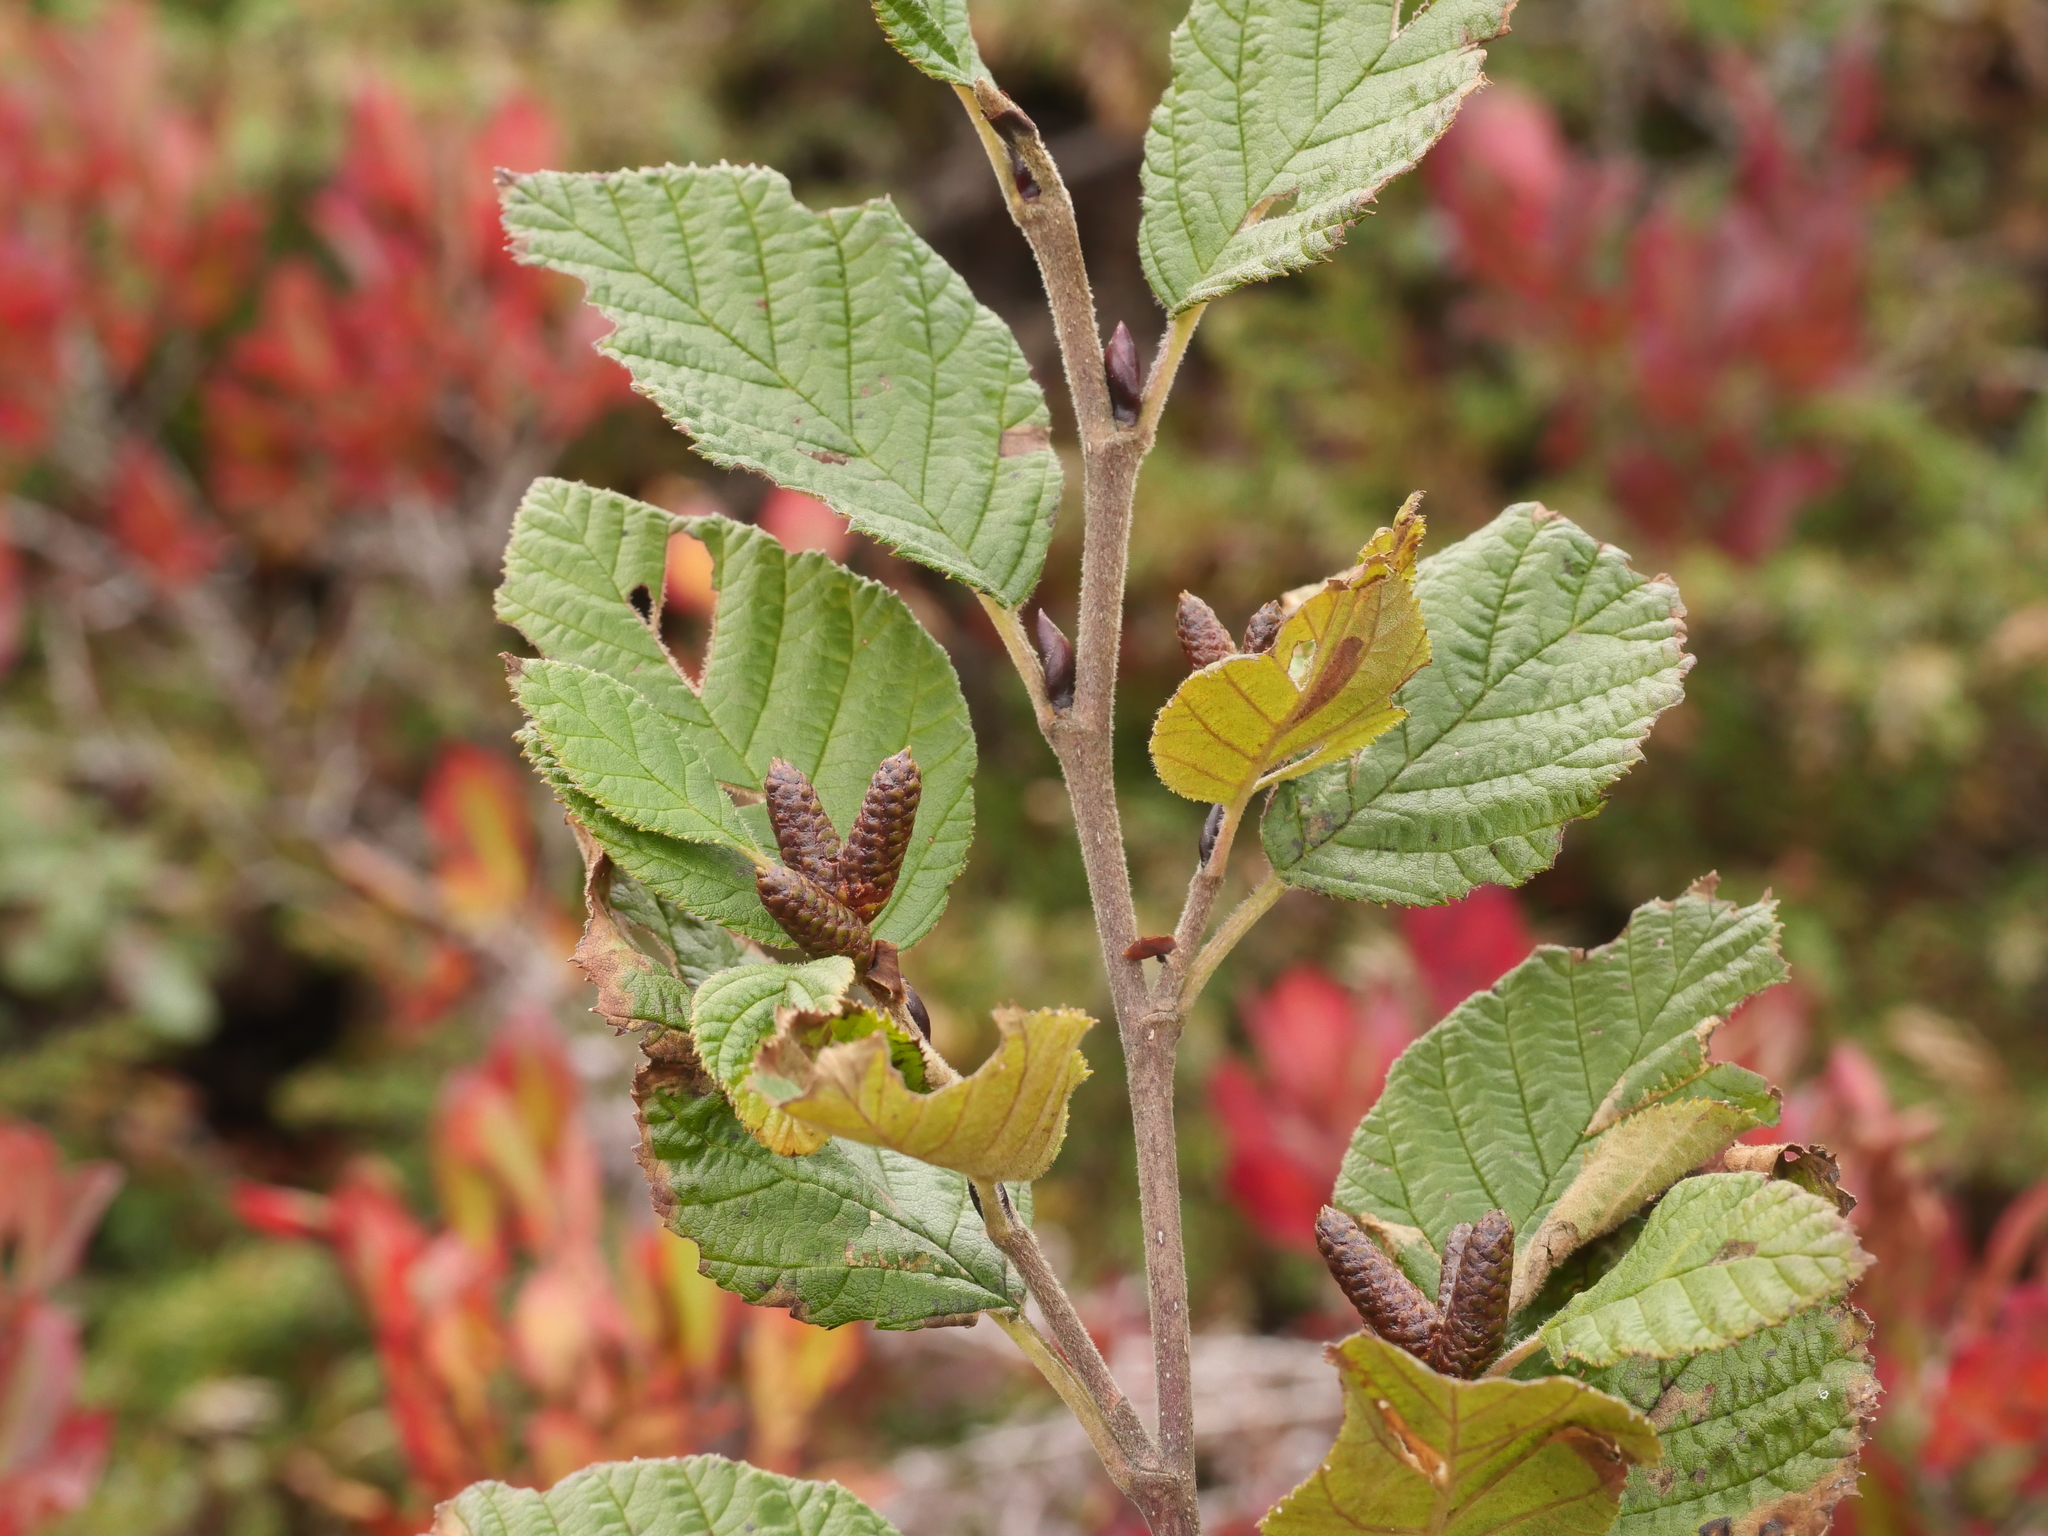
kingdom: Plantae
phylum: Tracheophyta
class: Magnoliopsida
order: Fagales
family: Betulaceae
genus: Alnus
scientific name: Alnus alnobetula
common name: Green alder
